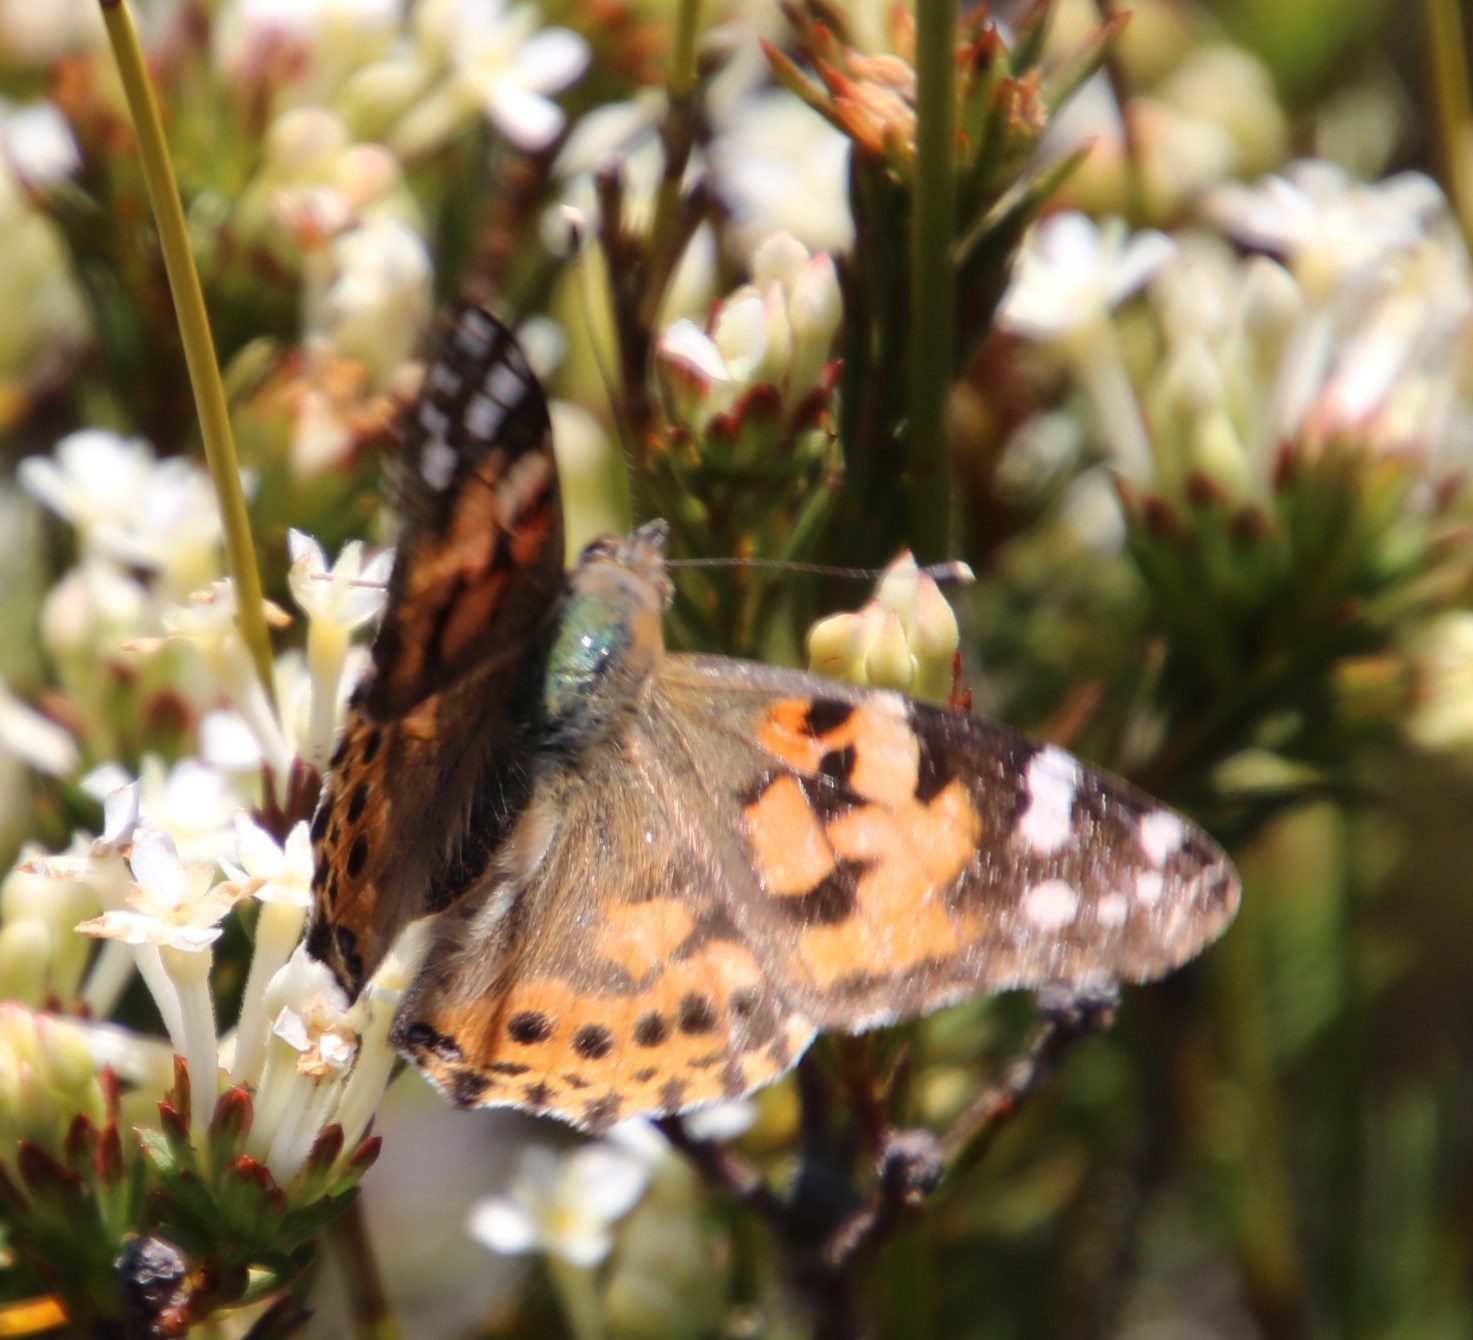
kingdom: Plantae
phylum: Tracheophyta
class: Magnoliopsida
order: Malvales
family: Thymelaeaceae
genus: Gnidia
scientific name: Gnidia pinifolia
